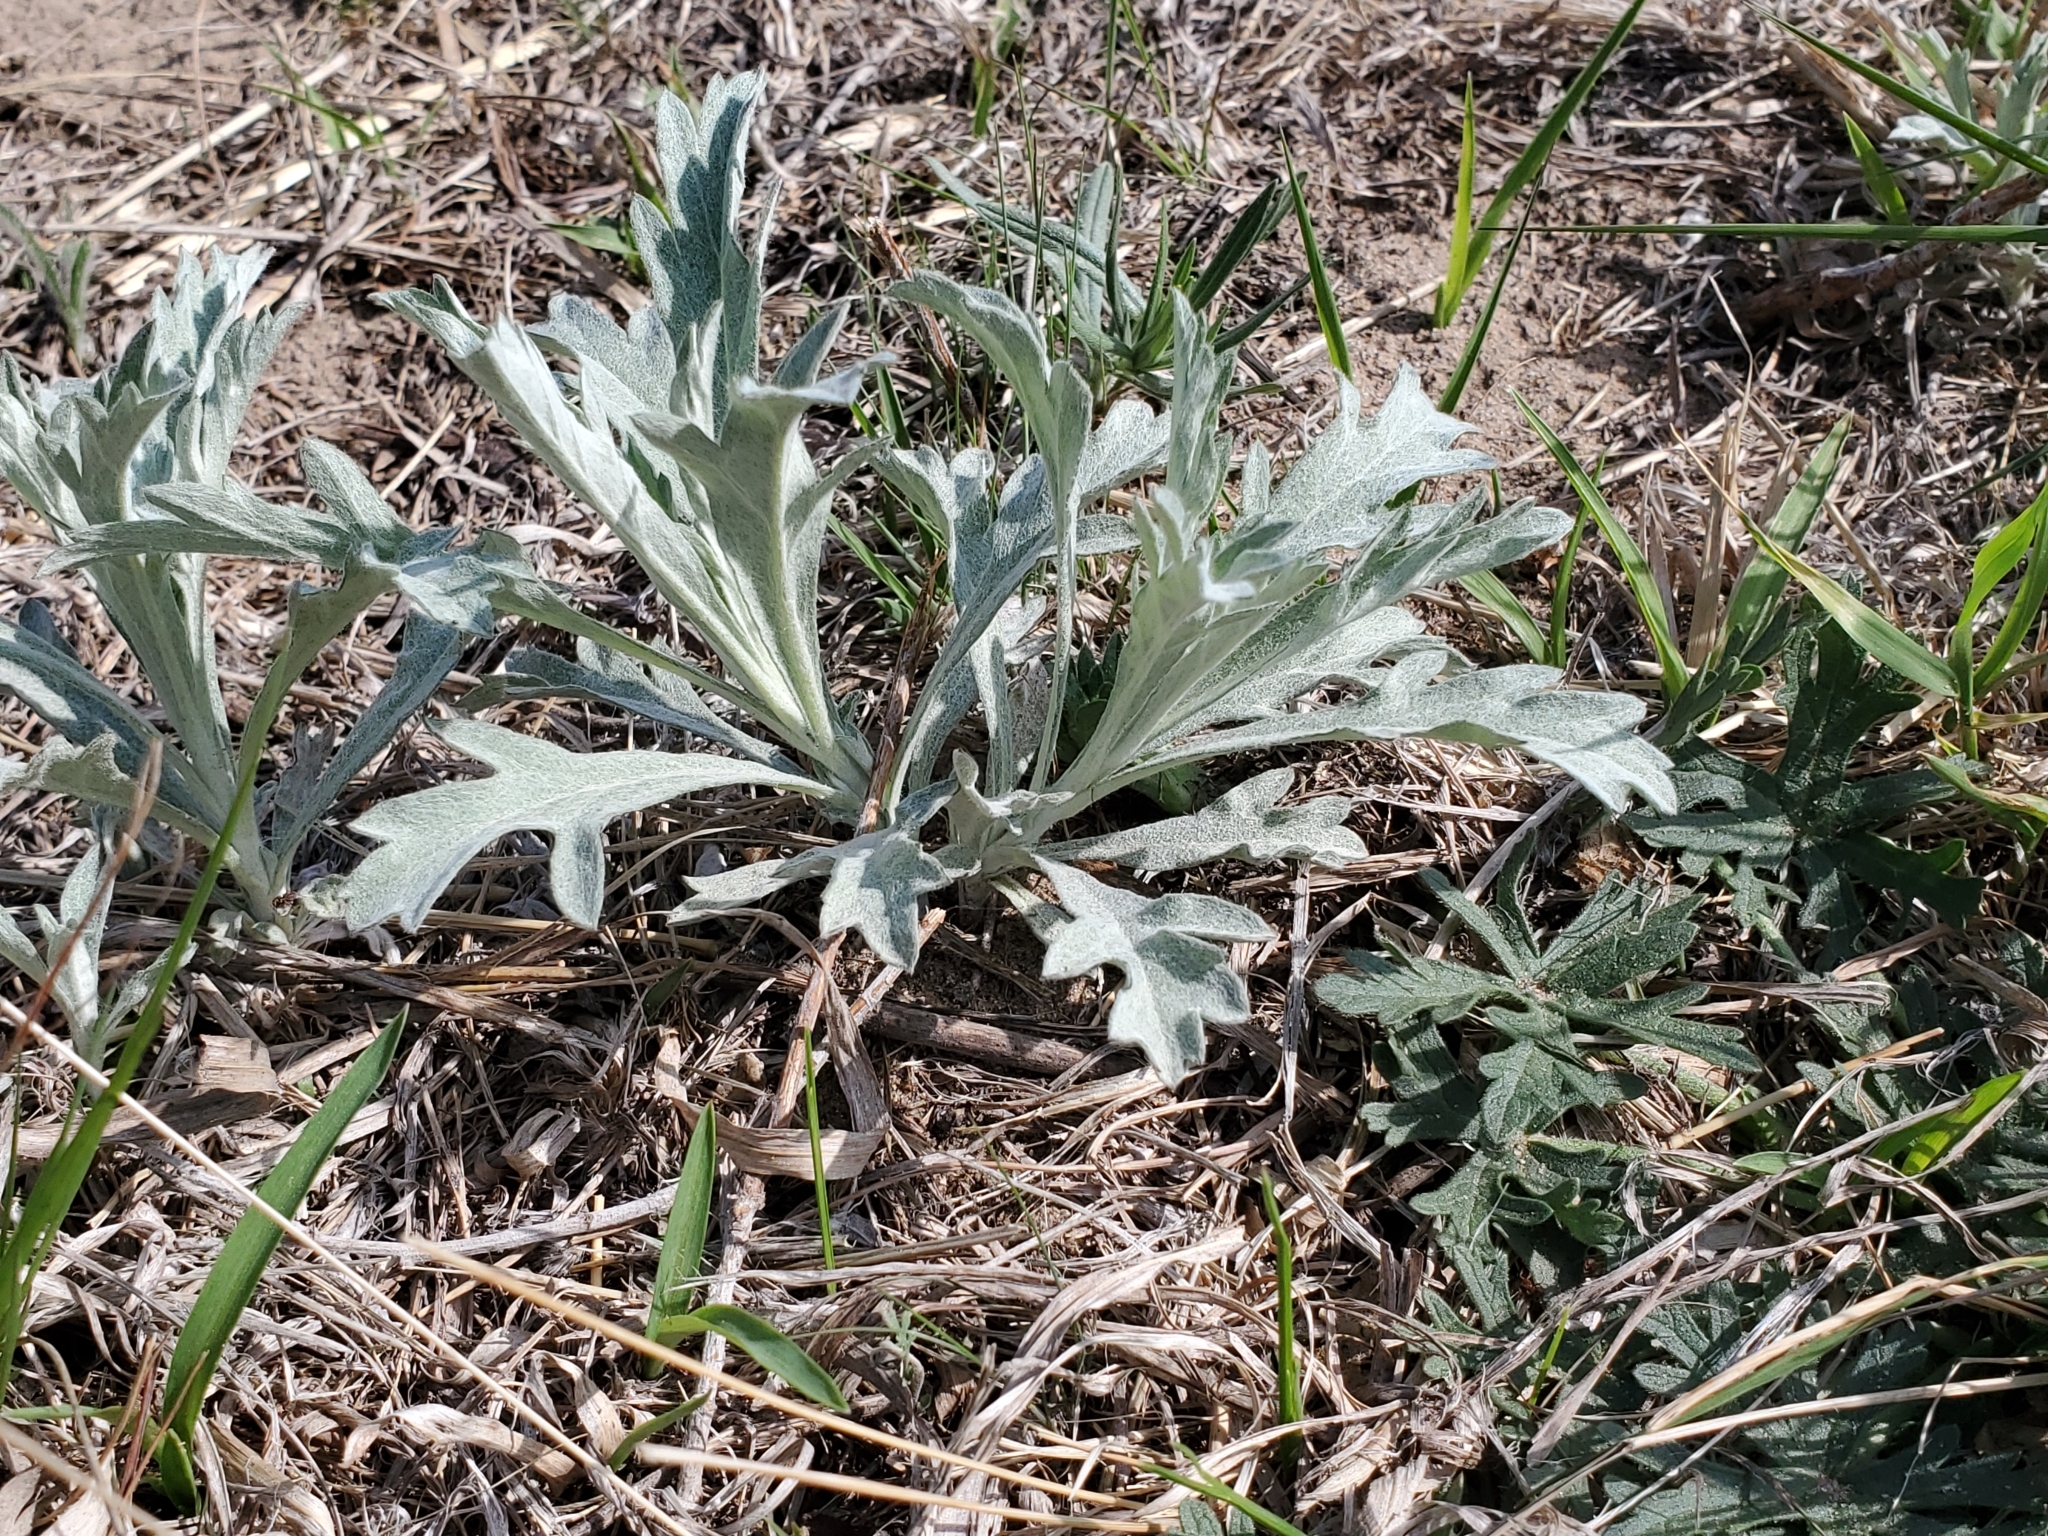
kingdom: Plantae
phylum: Tracheophyta
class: Magnoliopsida
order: Asterales
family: Asteraceae
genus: Artemisia
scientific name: Artemisia ludoviciana
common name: Western mugwort
